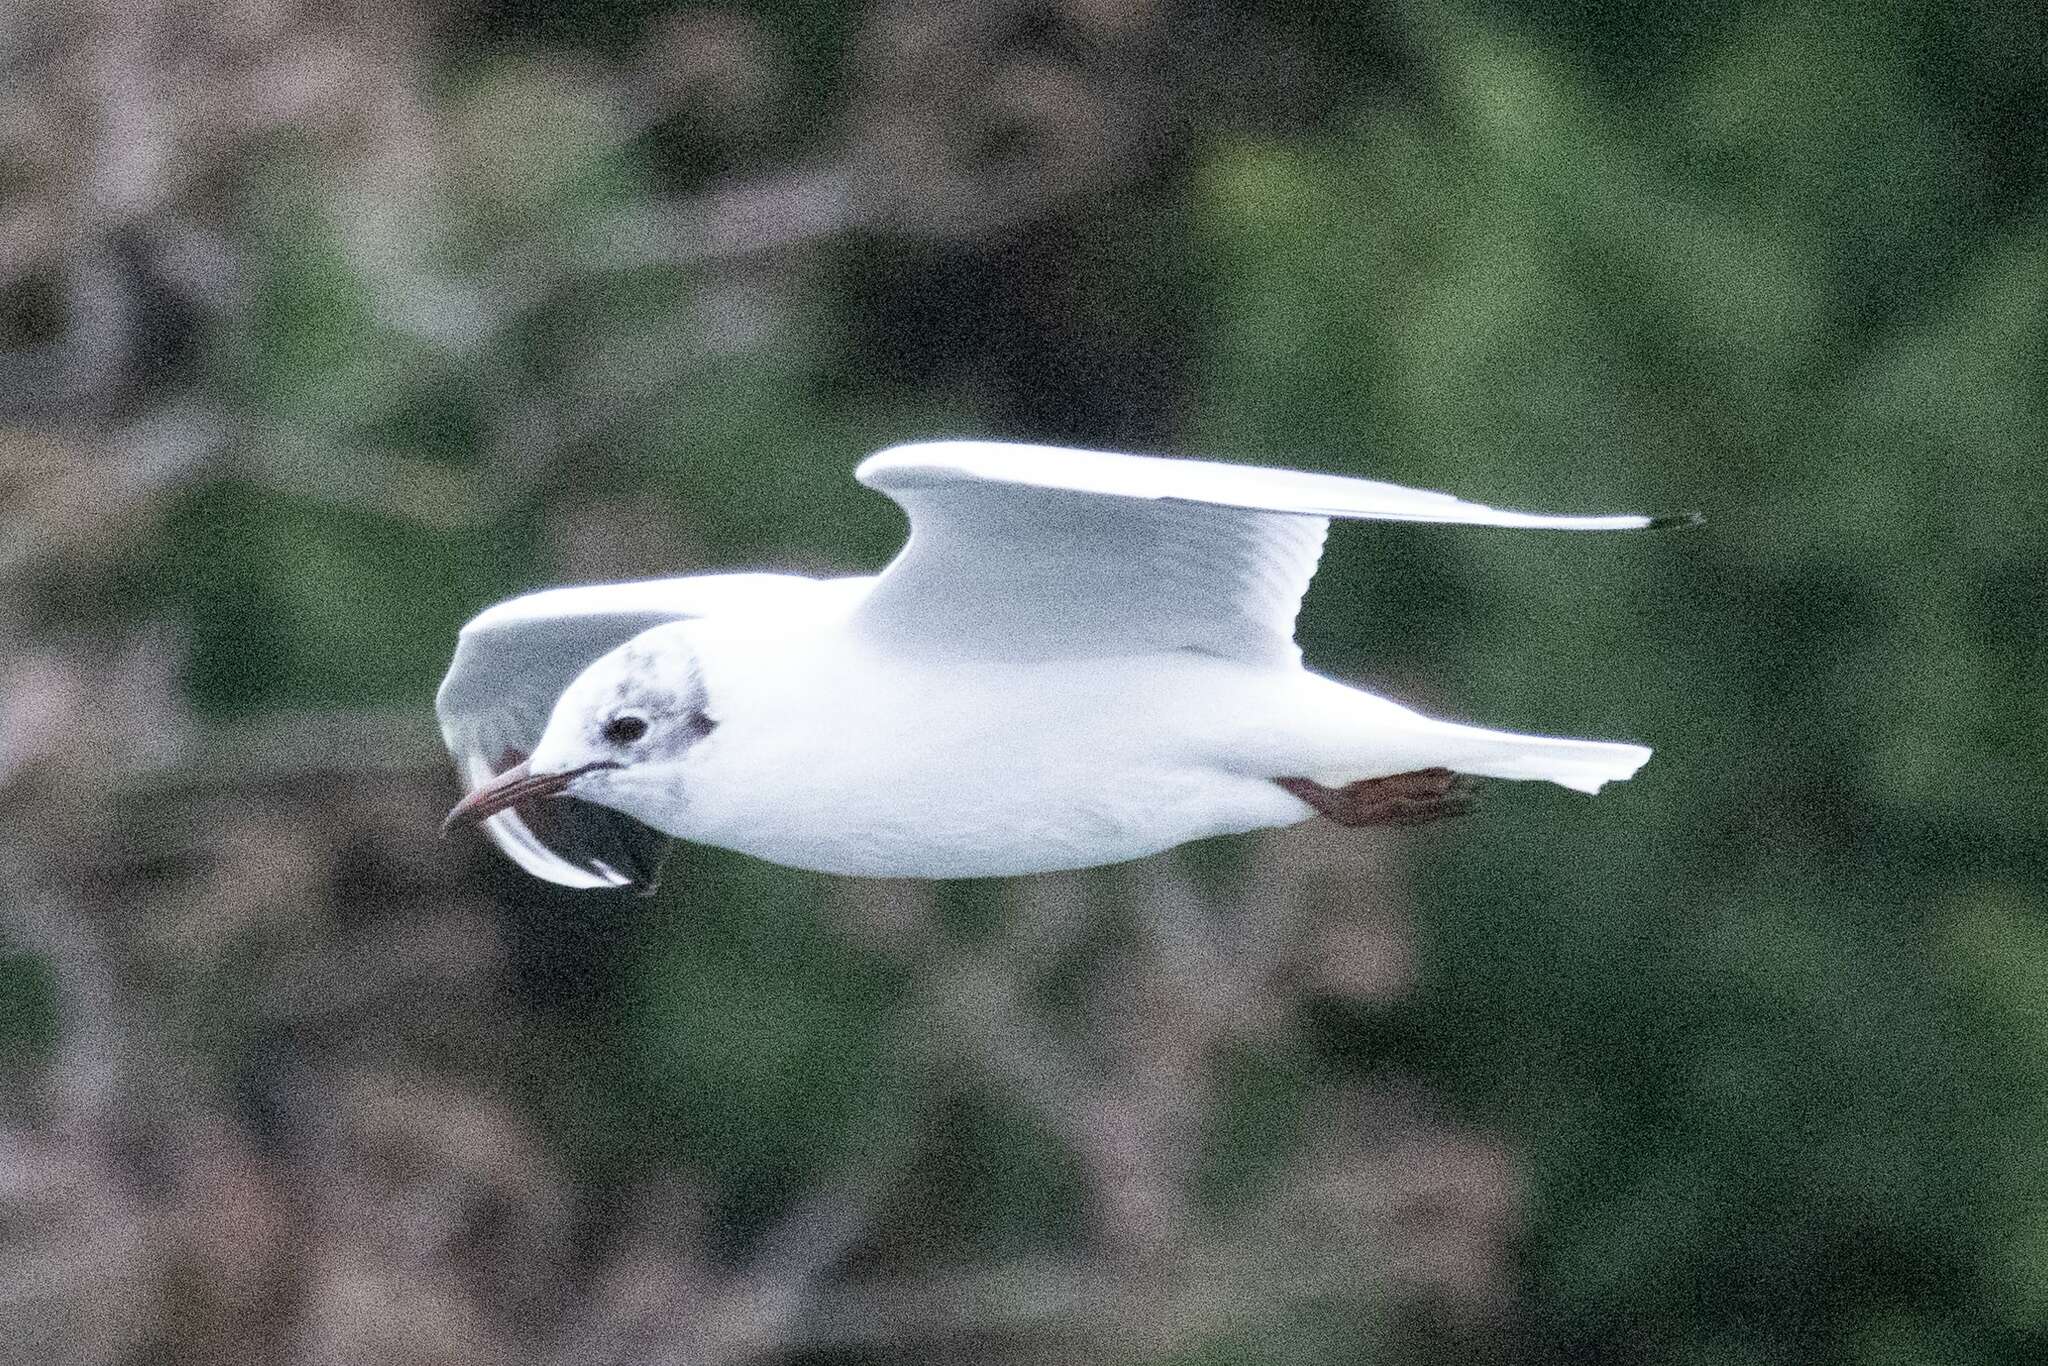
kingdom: Animalia
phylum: Chordata
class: Aves
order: Charadriiformes
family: Laridae
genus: Chroicocephalus
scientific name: Chroicocephalus ridibundus
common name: Black-headed gull
